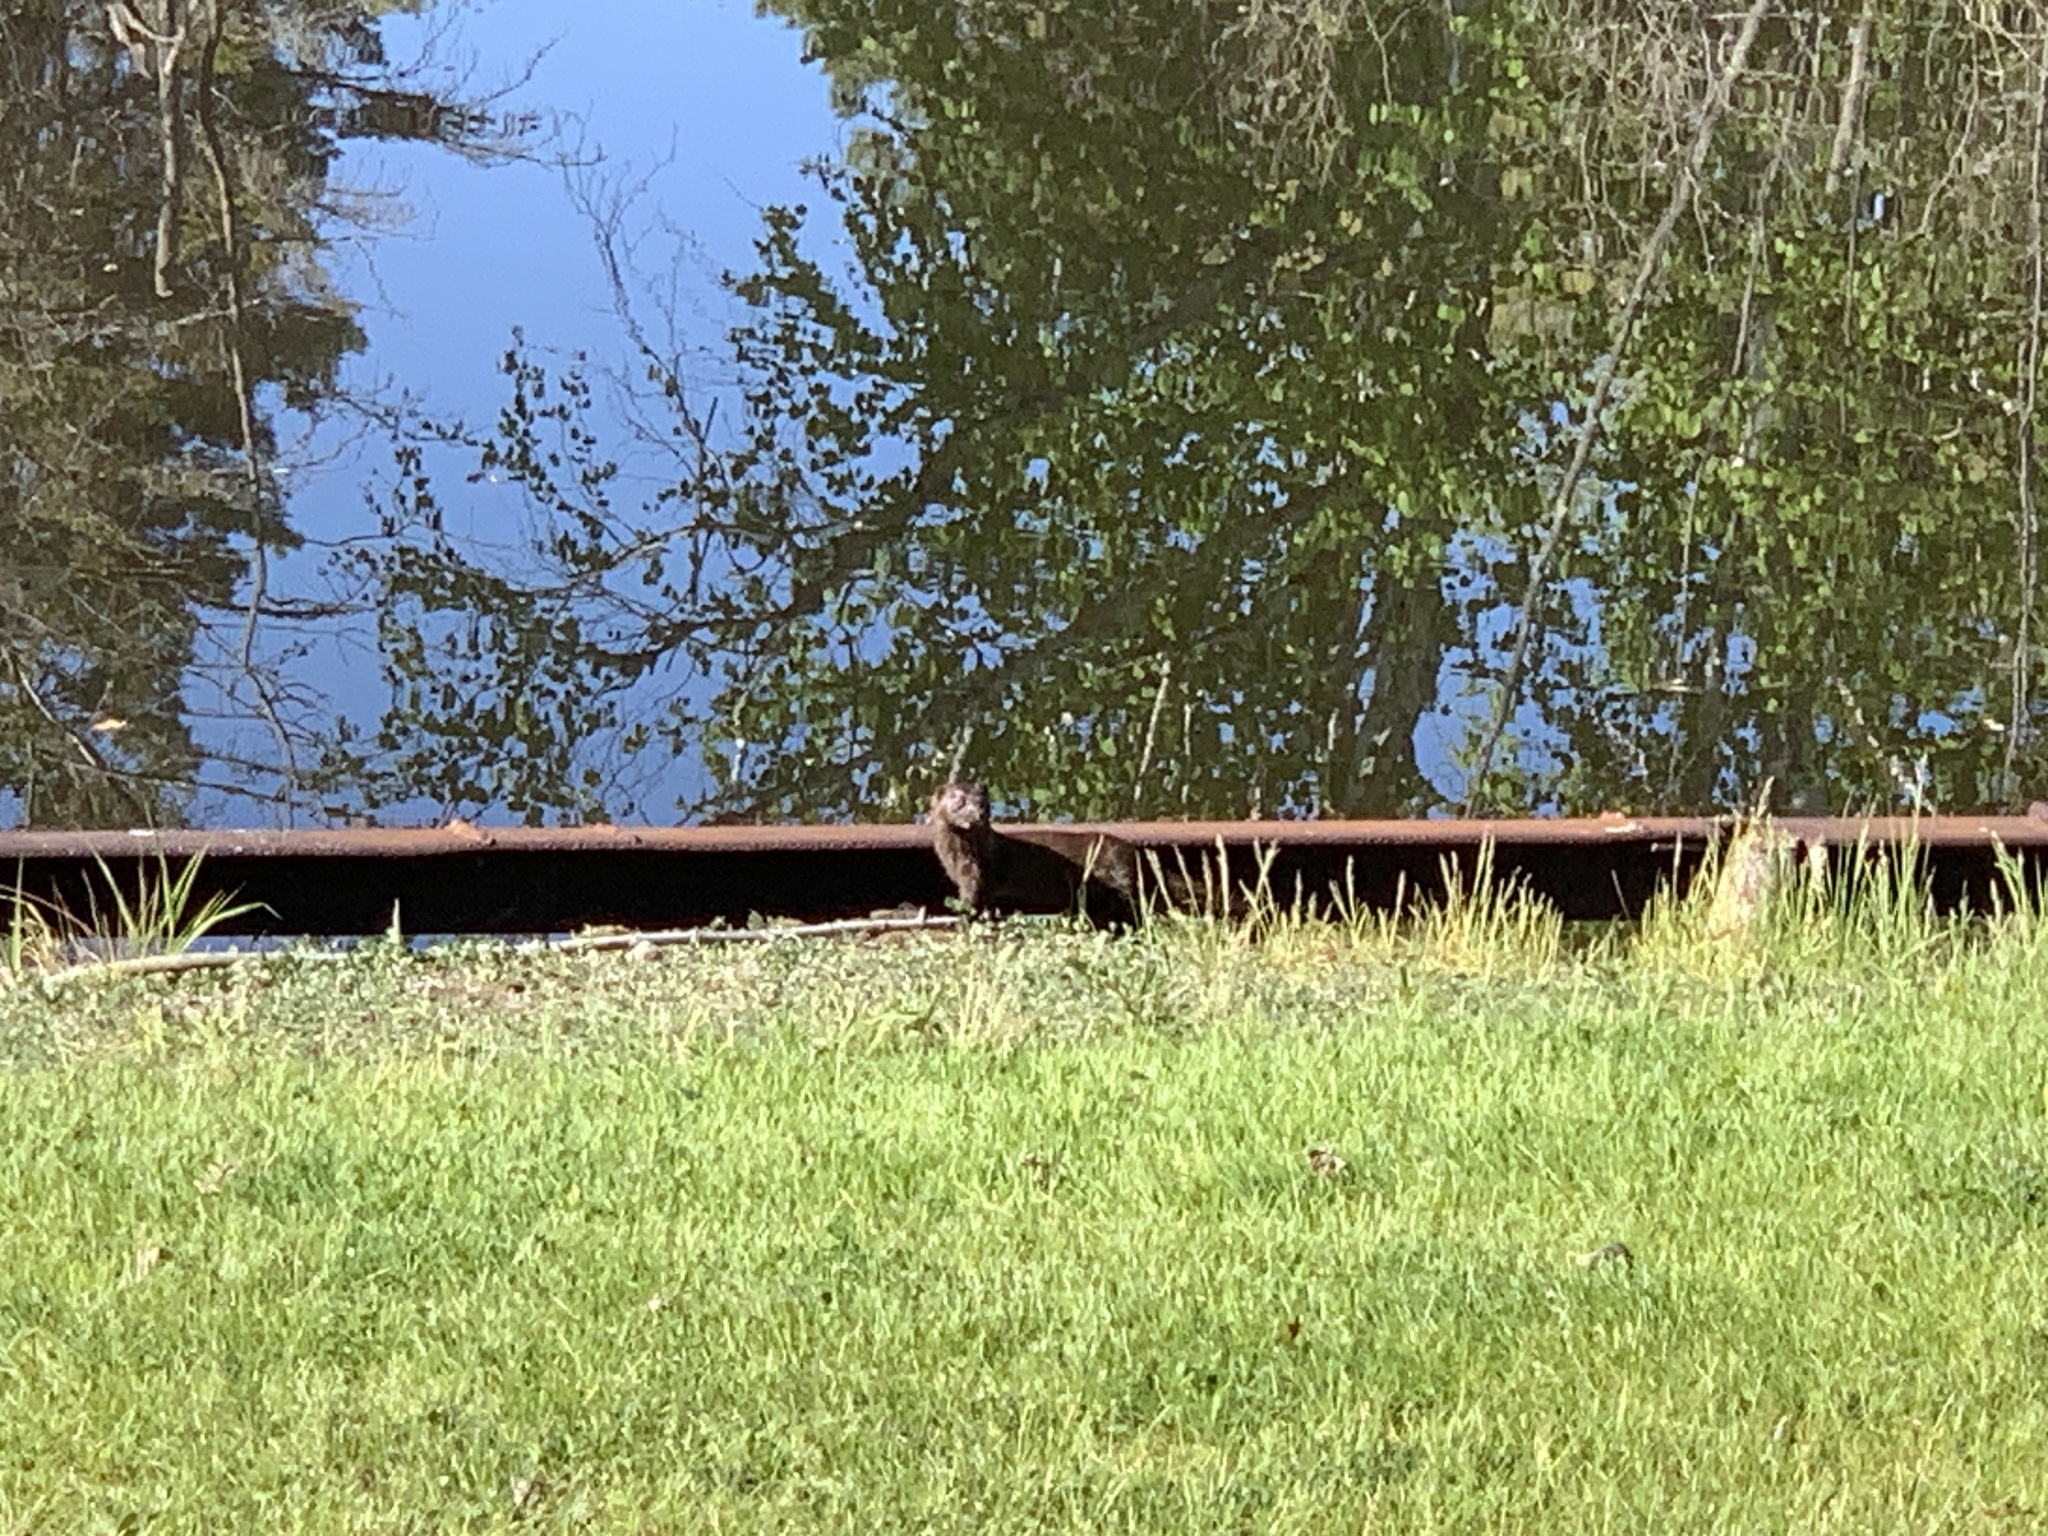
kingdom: Animalia
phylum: Chordata
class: Mammalia
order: Carnivora
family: Mustelidae
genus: Mustela
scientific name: Mustela
